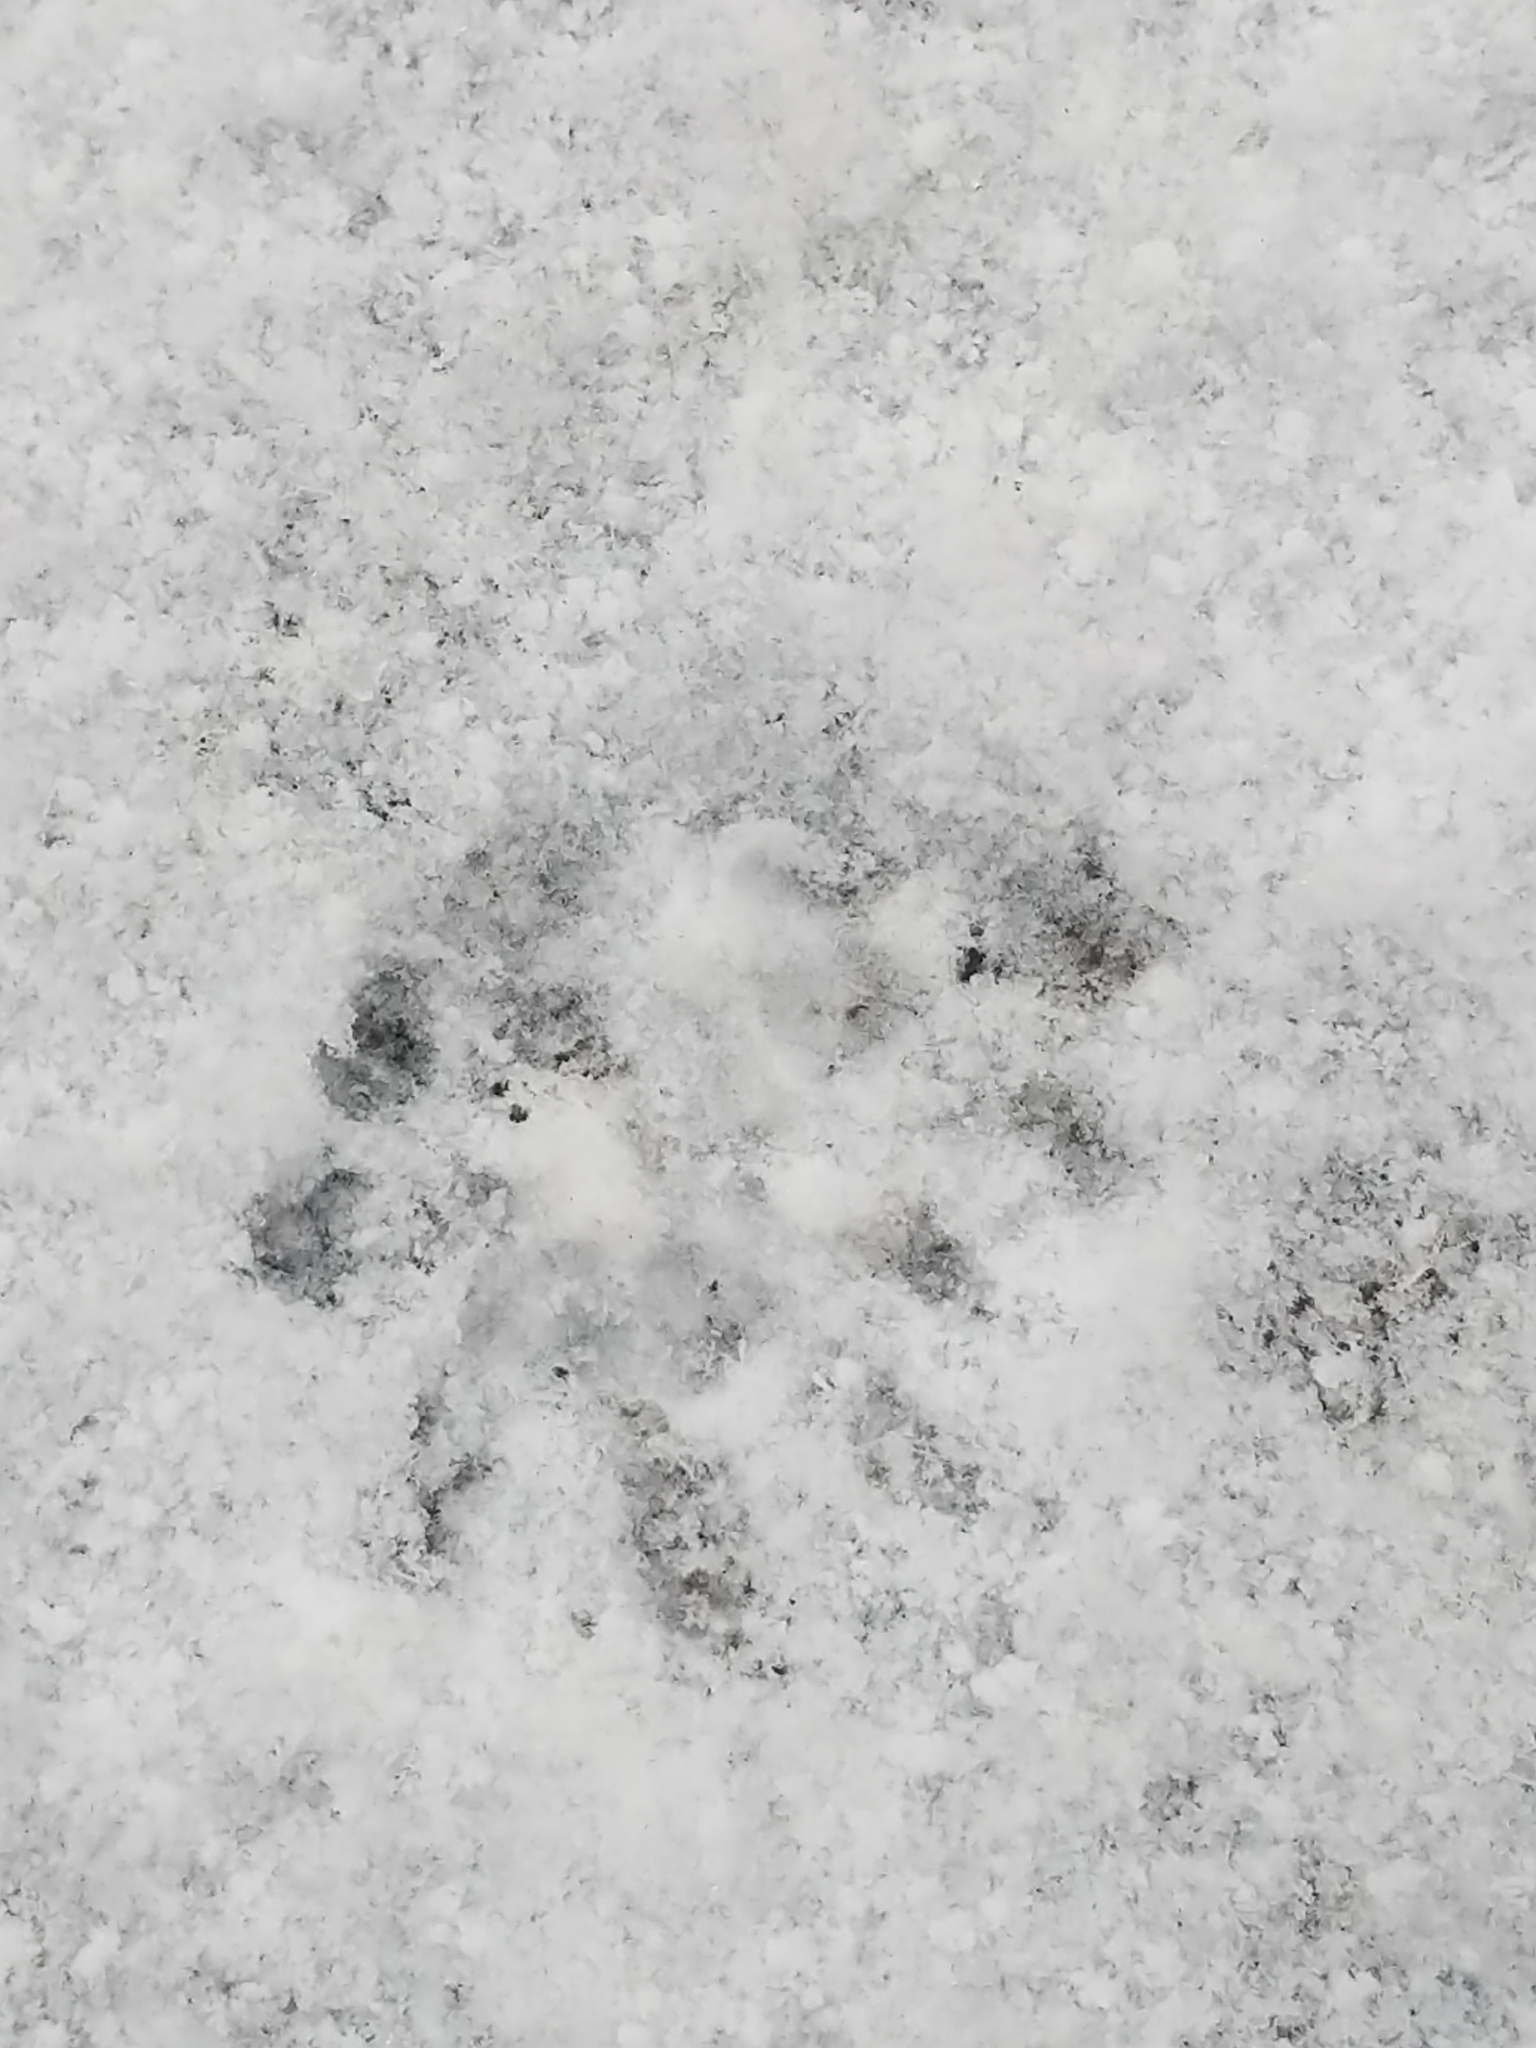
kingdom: Animalia
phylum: Chordata
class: Mammalia
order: Didelphimorphia
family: Didelphidae
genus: Didelphis
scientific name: Didelphis virginiana
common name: Virginia opossum
